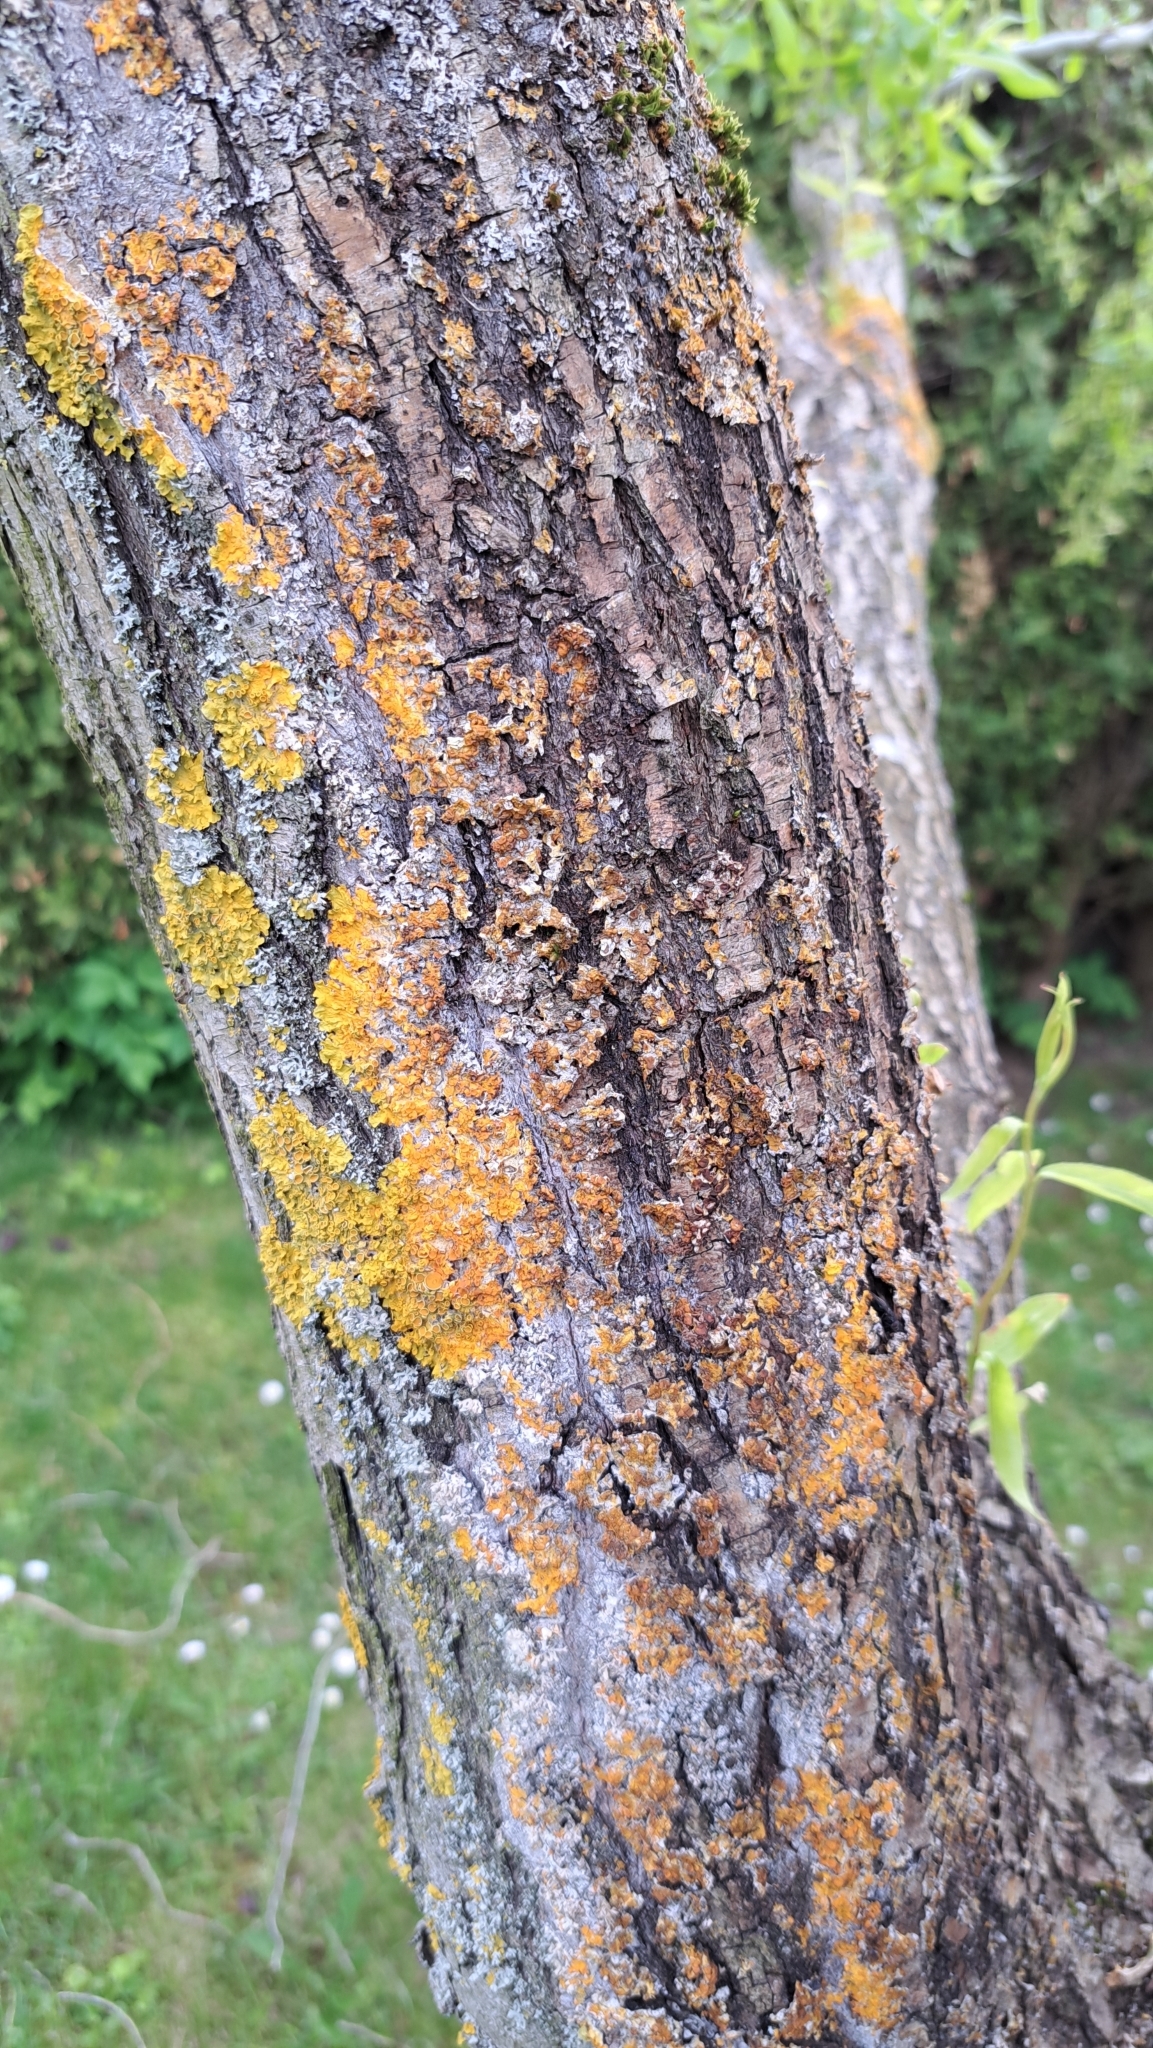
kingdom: Fungi
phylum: Basidiomycota
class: Agaricomycetes
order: Atheliales
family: Atheliaceae
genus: Athelia
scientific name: Athelia arachnoidea
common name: Candelabra duster
